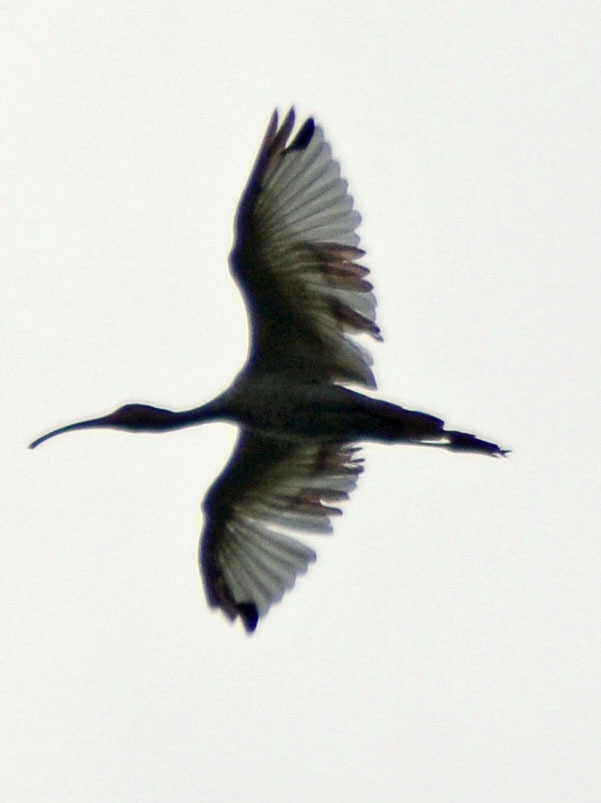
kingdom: Animalia
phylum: Chordata
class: Aves
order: Pelecaniformes
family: Threskiornithidae
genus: Eudocimus
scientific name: Eudocimus albus
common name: White ibis
